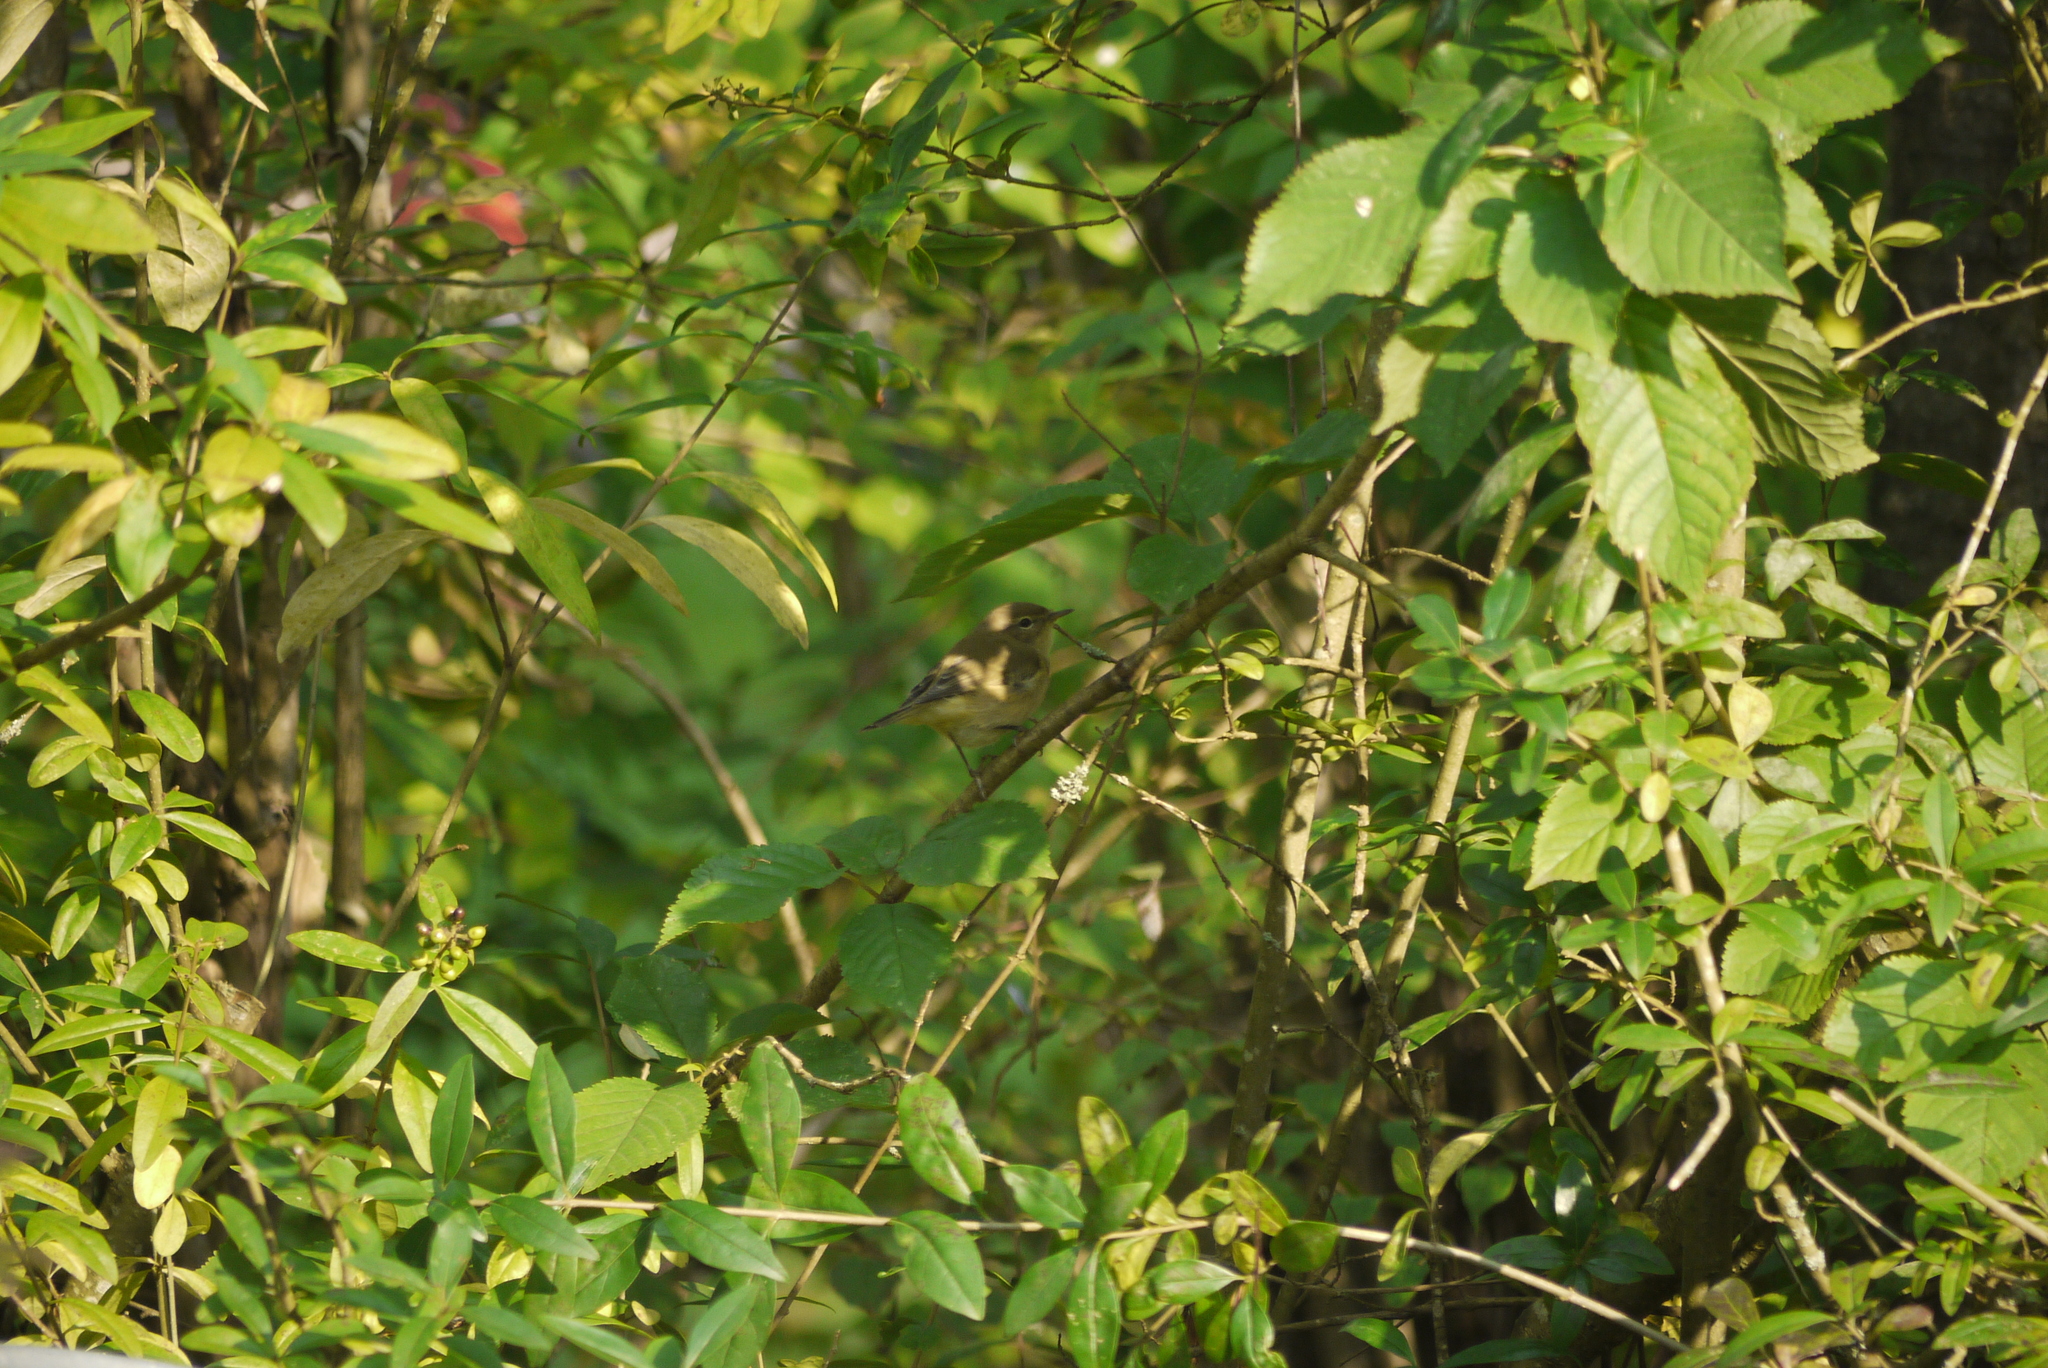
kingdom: Animalia
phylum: Chordata
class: Aves
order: Passeriformes
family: Phylloscopidae
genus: Phylloscopus
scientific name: Phylloscopus collybita
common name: Common chiffchaff
